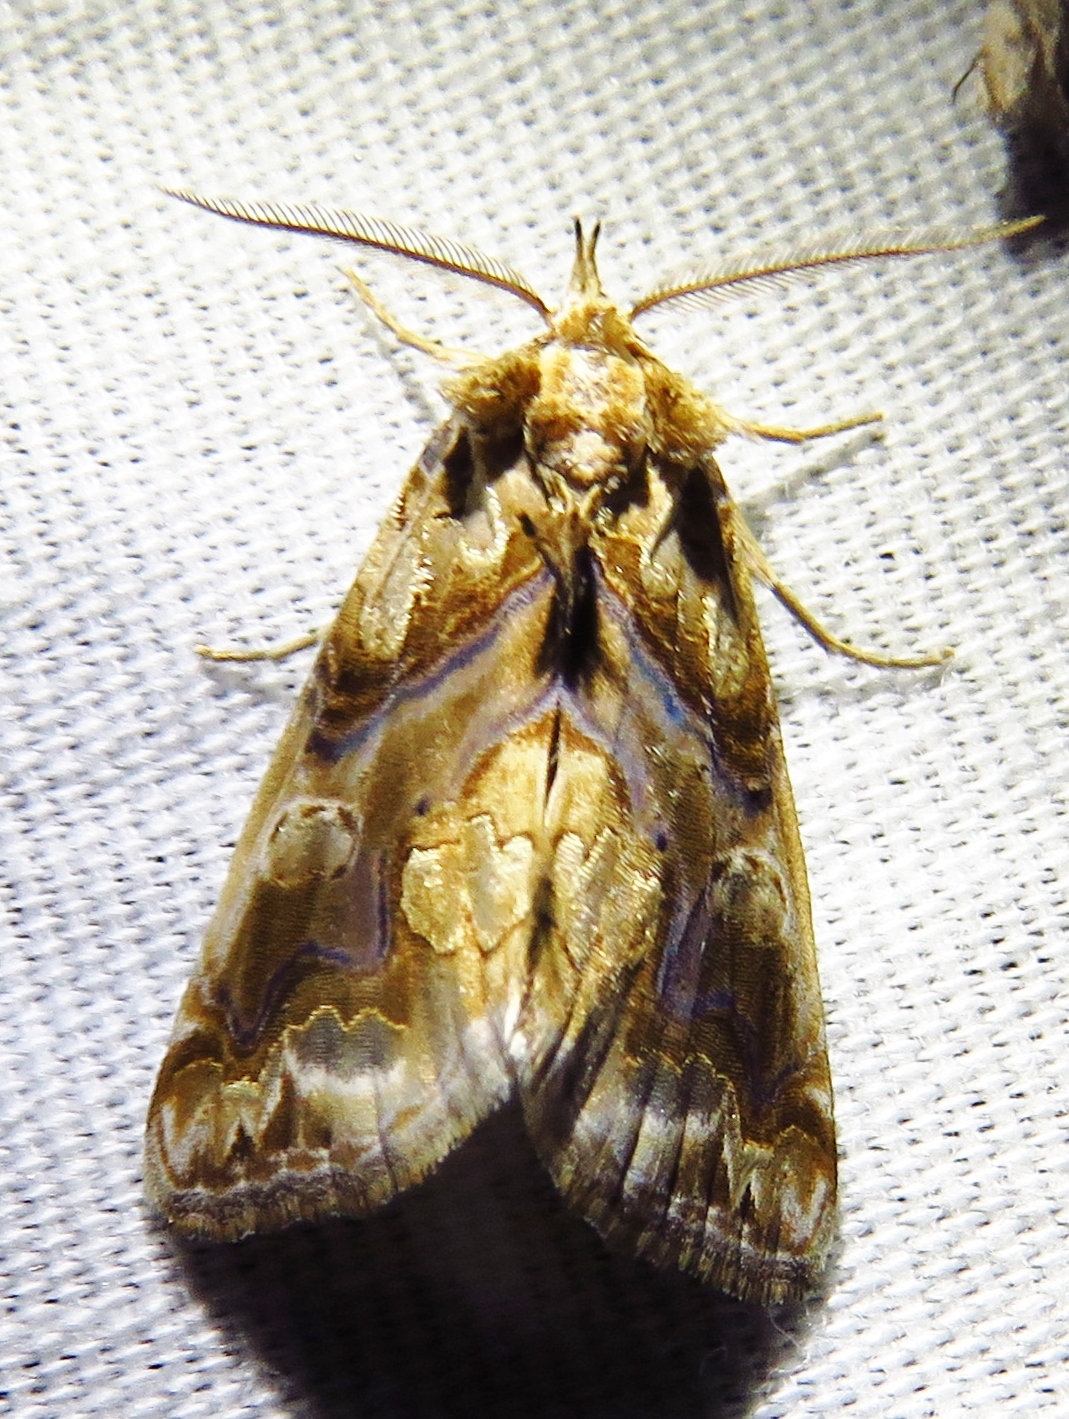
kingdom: Animalia
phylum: Arthropoda
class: Insecta
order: Lepidoptera
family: Erebidae
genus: Plusiodonta
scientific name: Plusiodonta compressipalpis
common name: Moonseed moth
